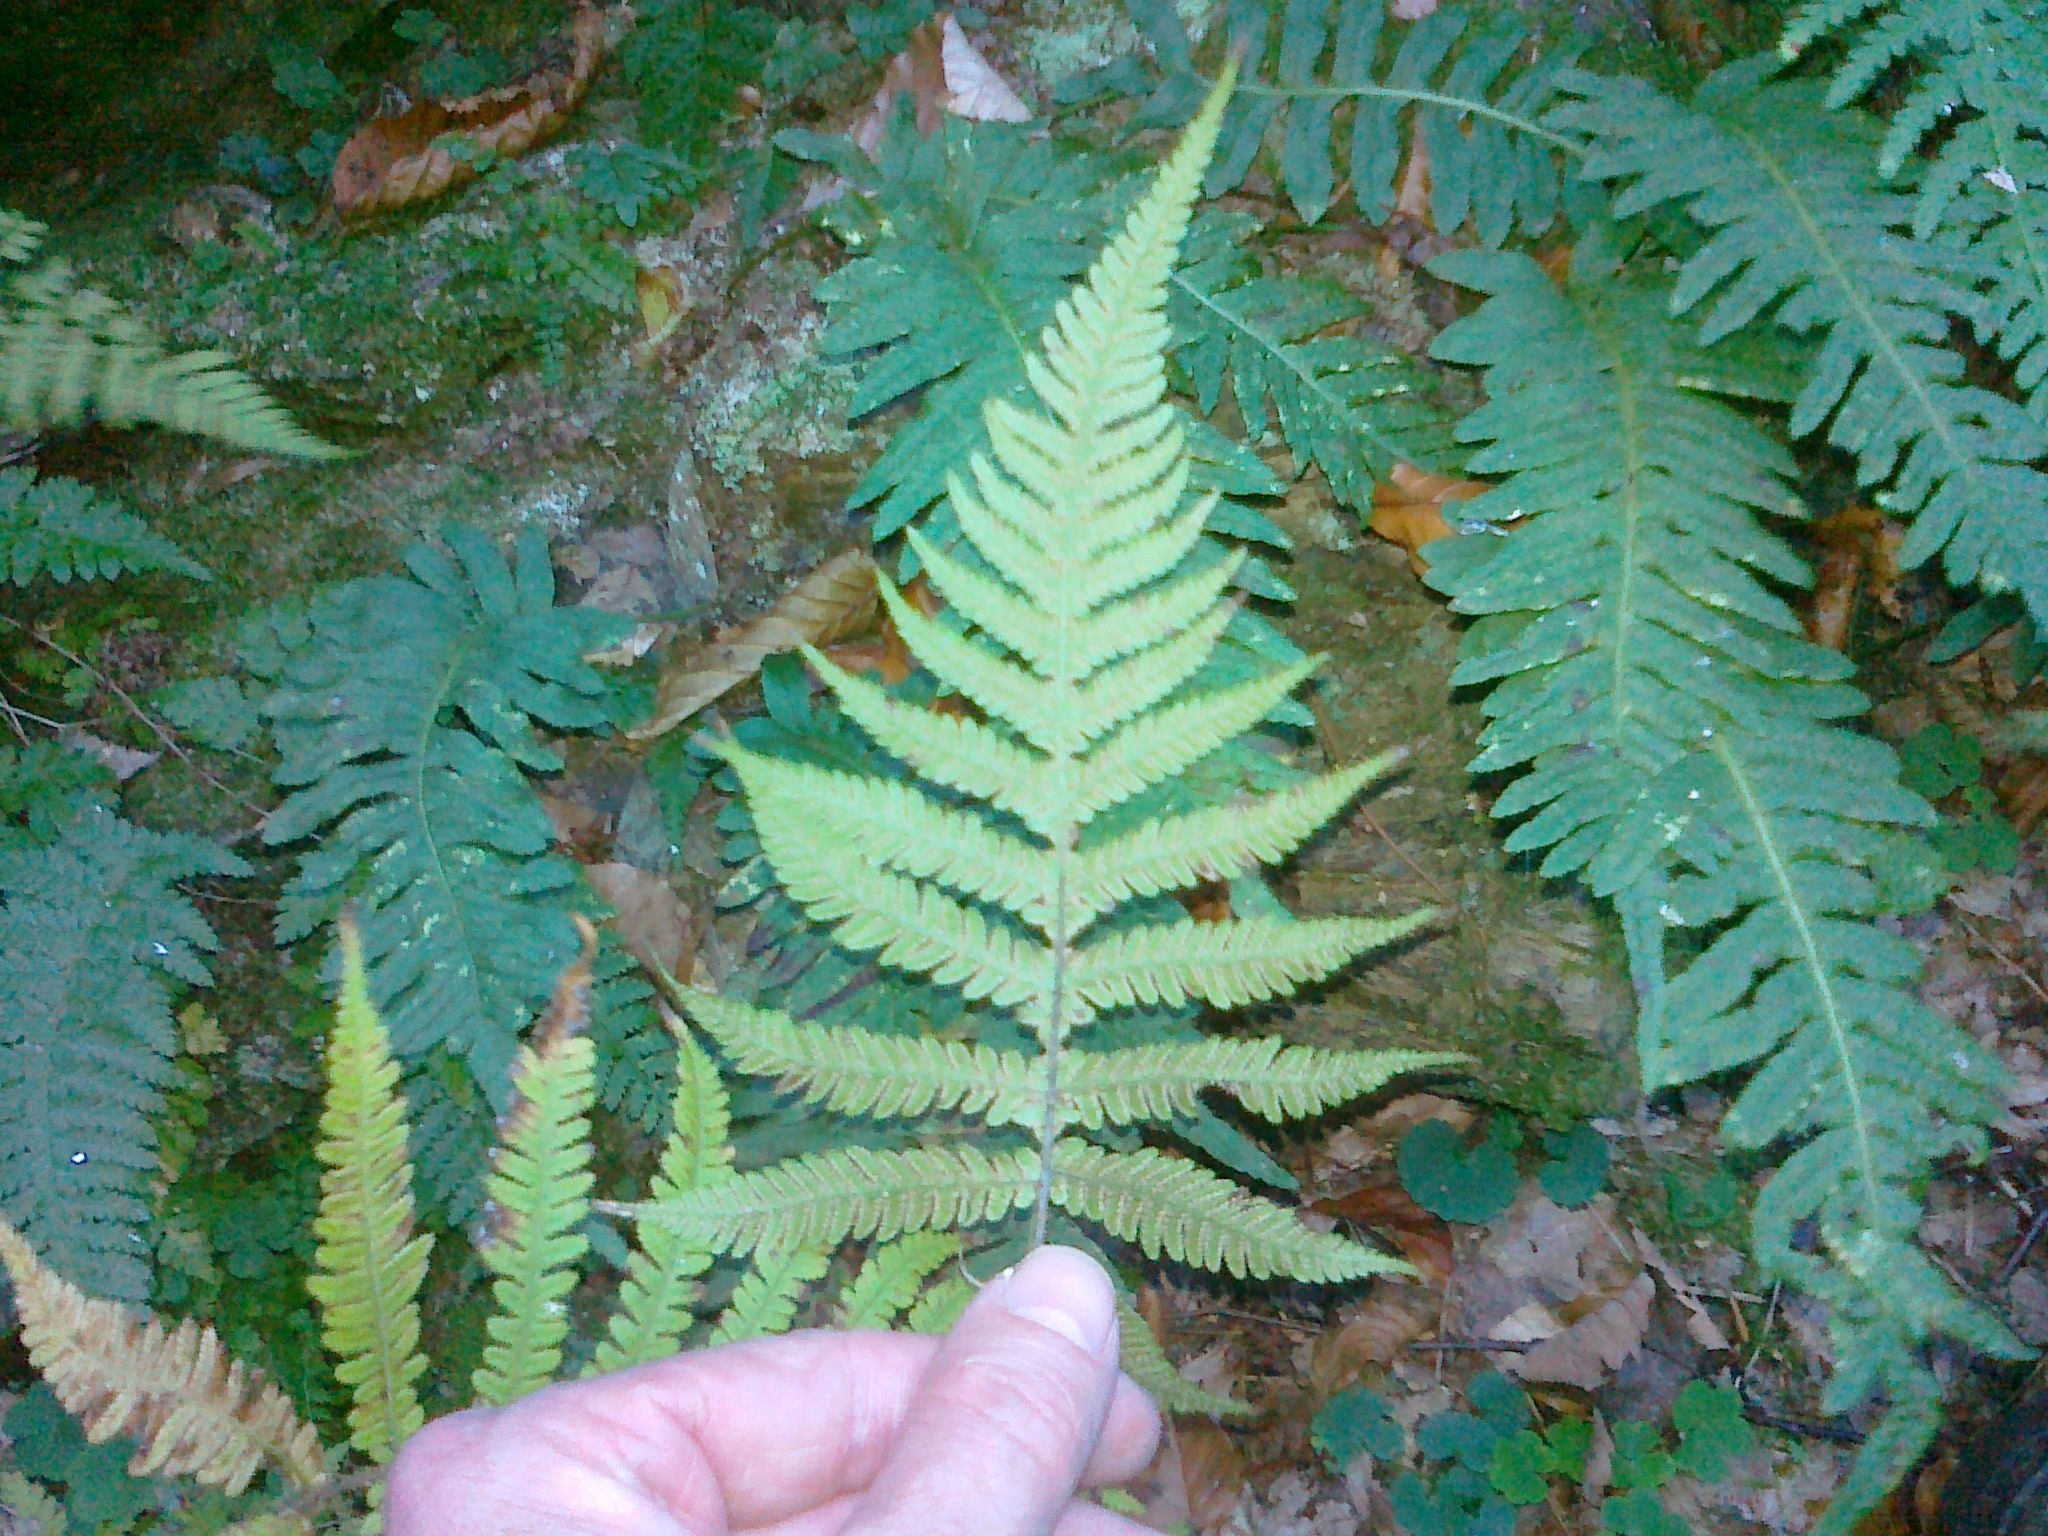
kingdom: Plantae
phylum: Tracheophyta
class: Polypodiopsida
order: Polypodiales
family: Thelypteridaceae
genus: Phegopteris
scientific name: Phegopteris connectilis
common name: Beech fern
